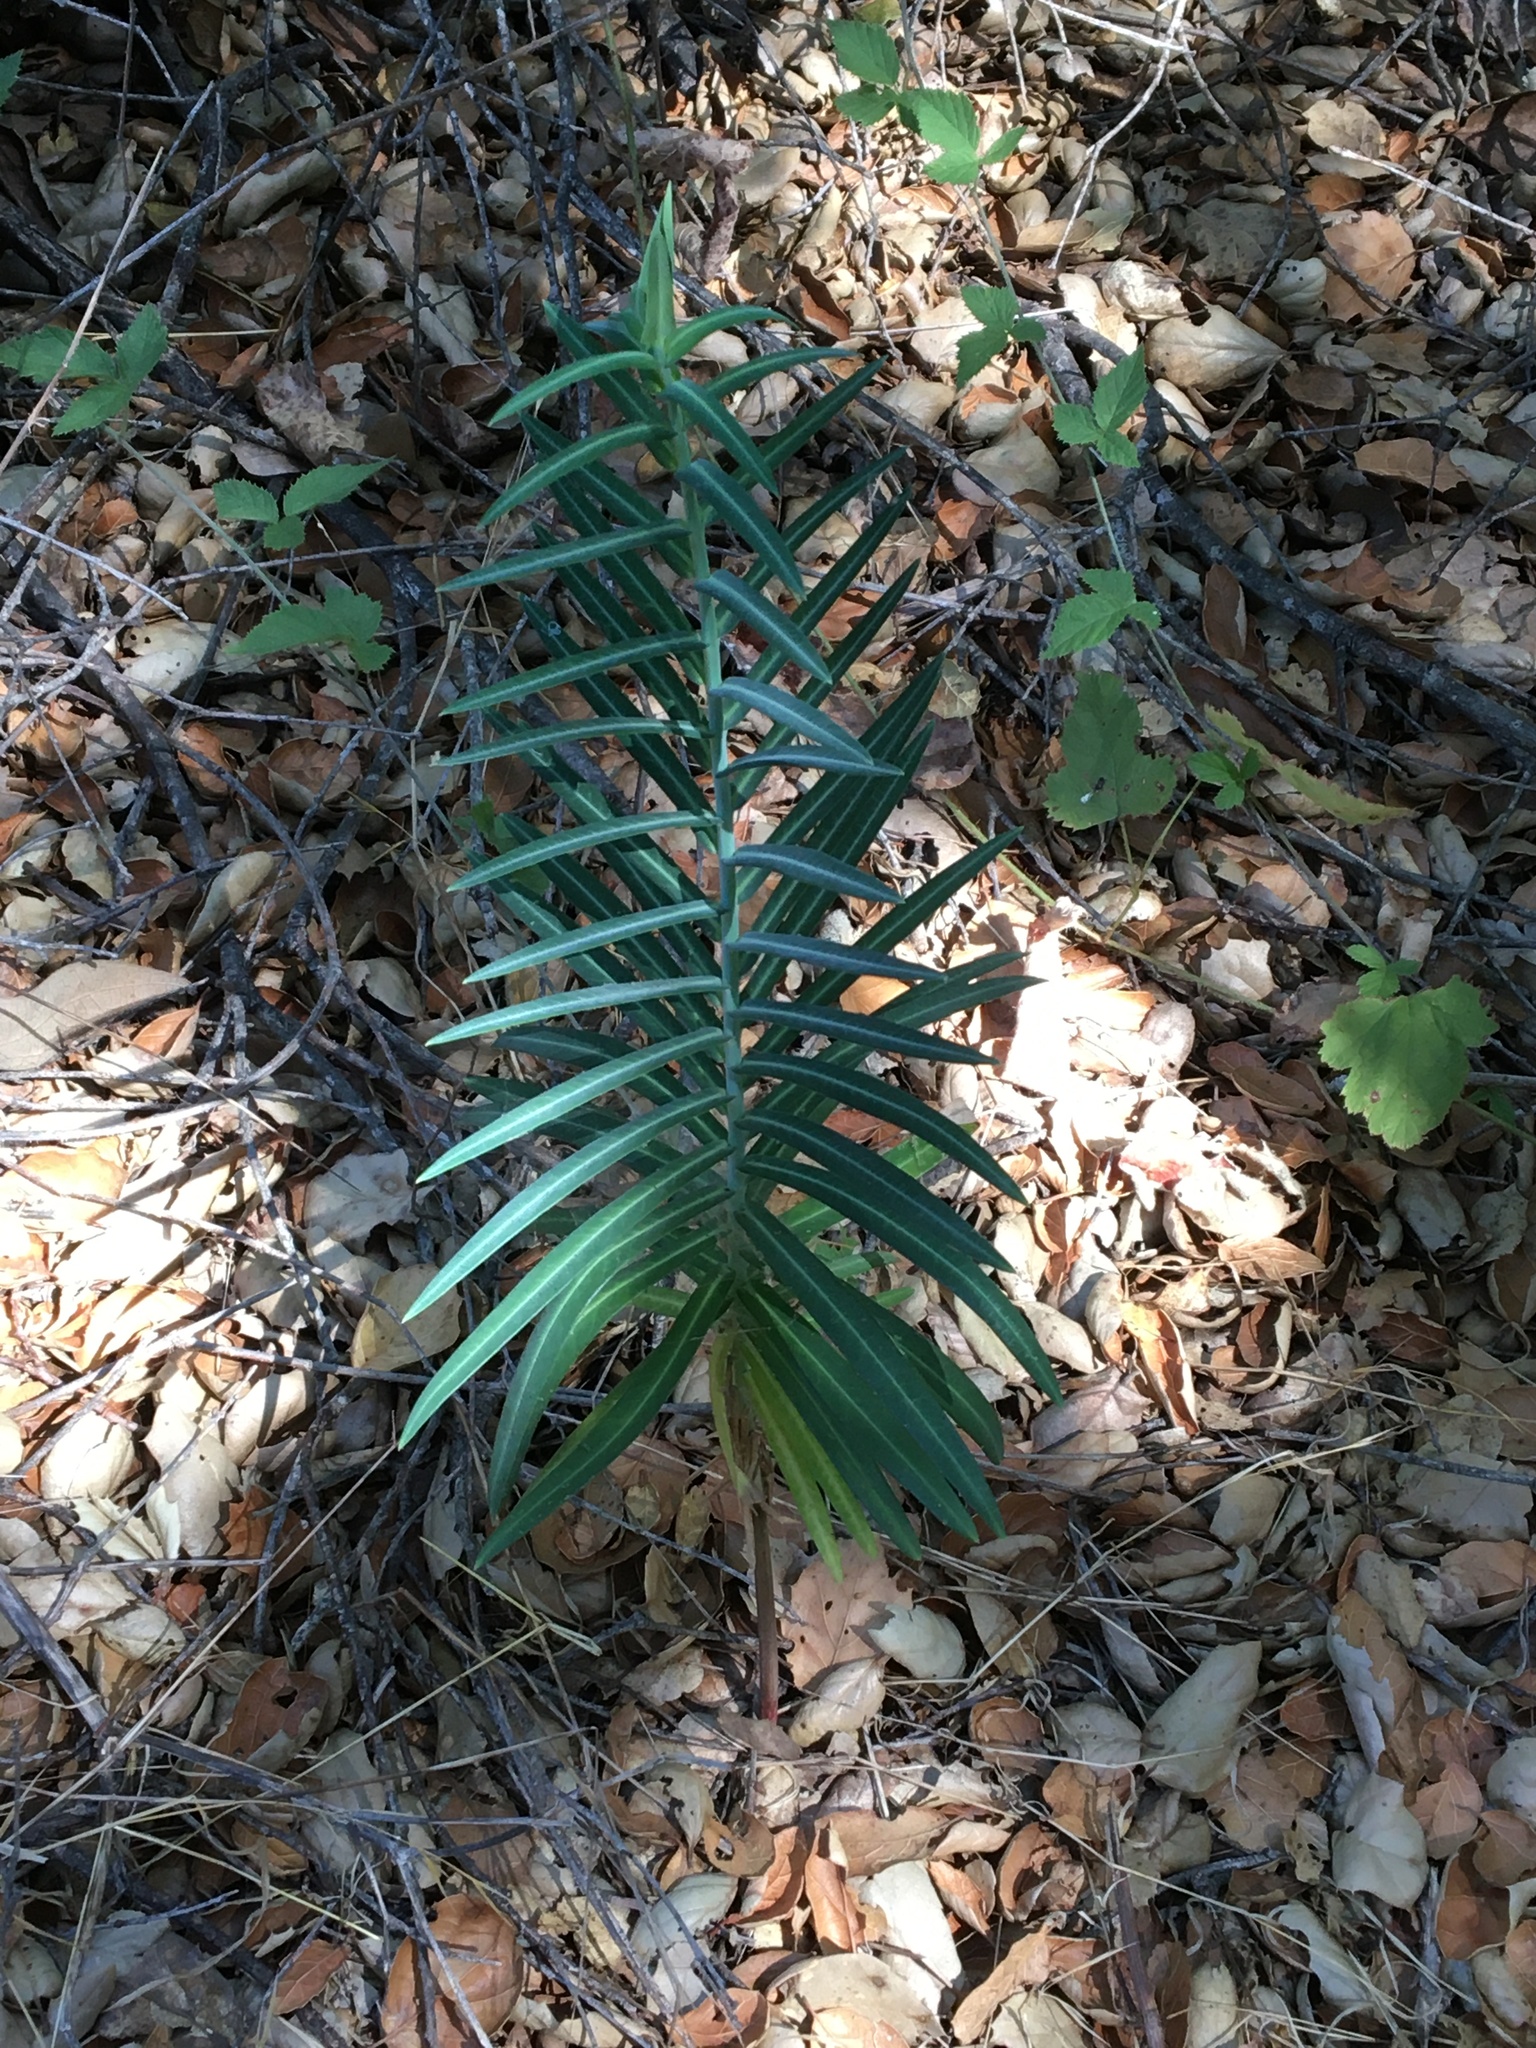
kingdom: Plantae
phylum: Tracheophyta
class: Magnoliopsida
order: Malpighiales
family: Euphorbiaceae
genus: Euphorbia
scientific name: Euphorbia lathyris
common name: Caper spurge
